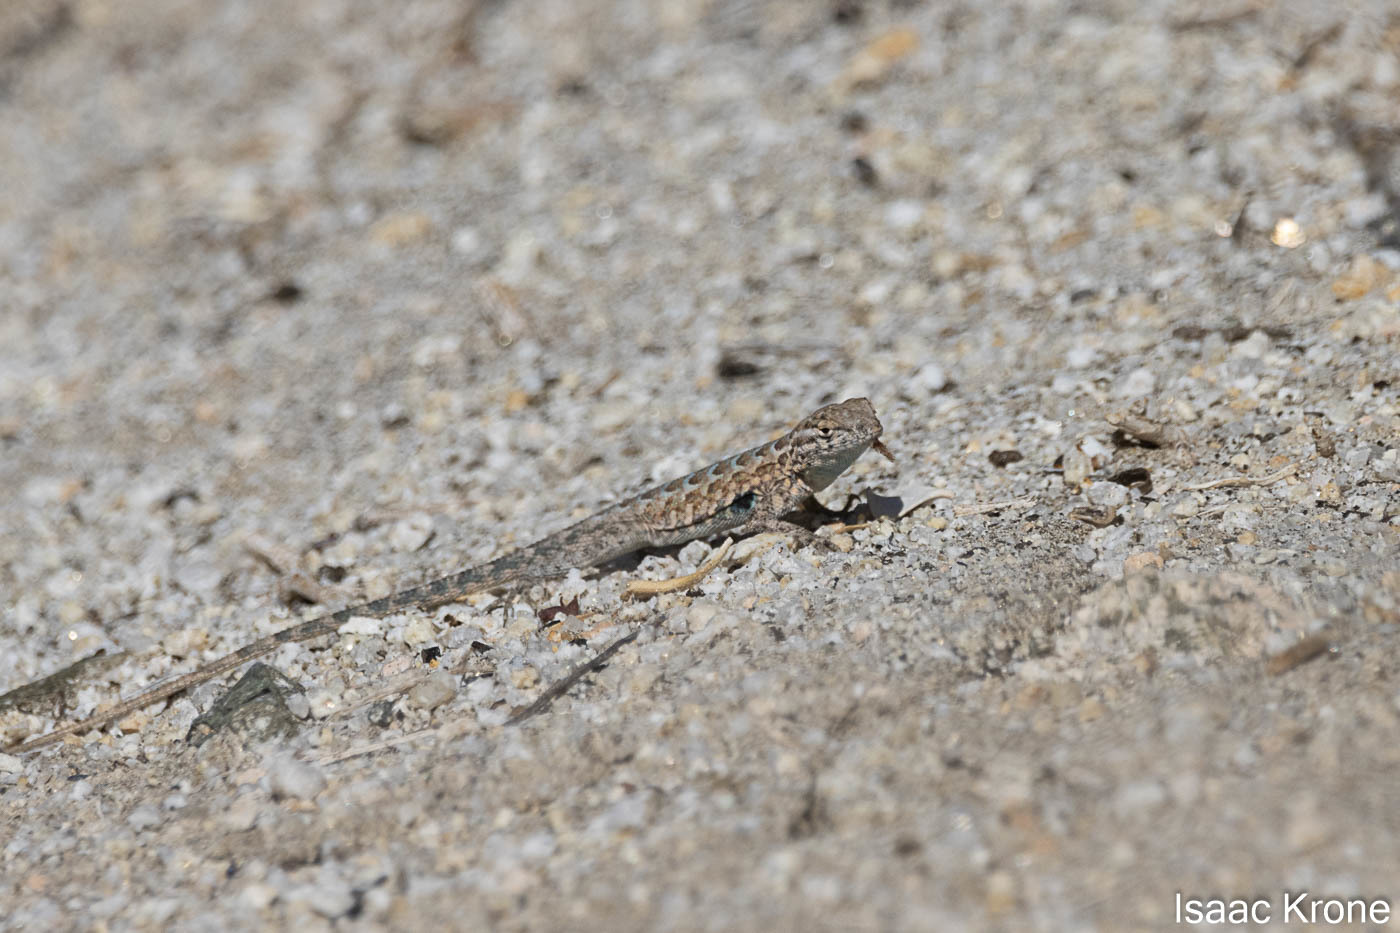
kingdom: Animalia
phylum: Chordata
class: Squamata
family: Phrynosomatidae
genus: Uta
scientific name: Uta stansburiana
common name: Side-blotched lizard
